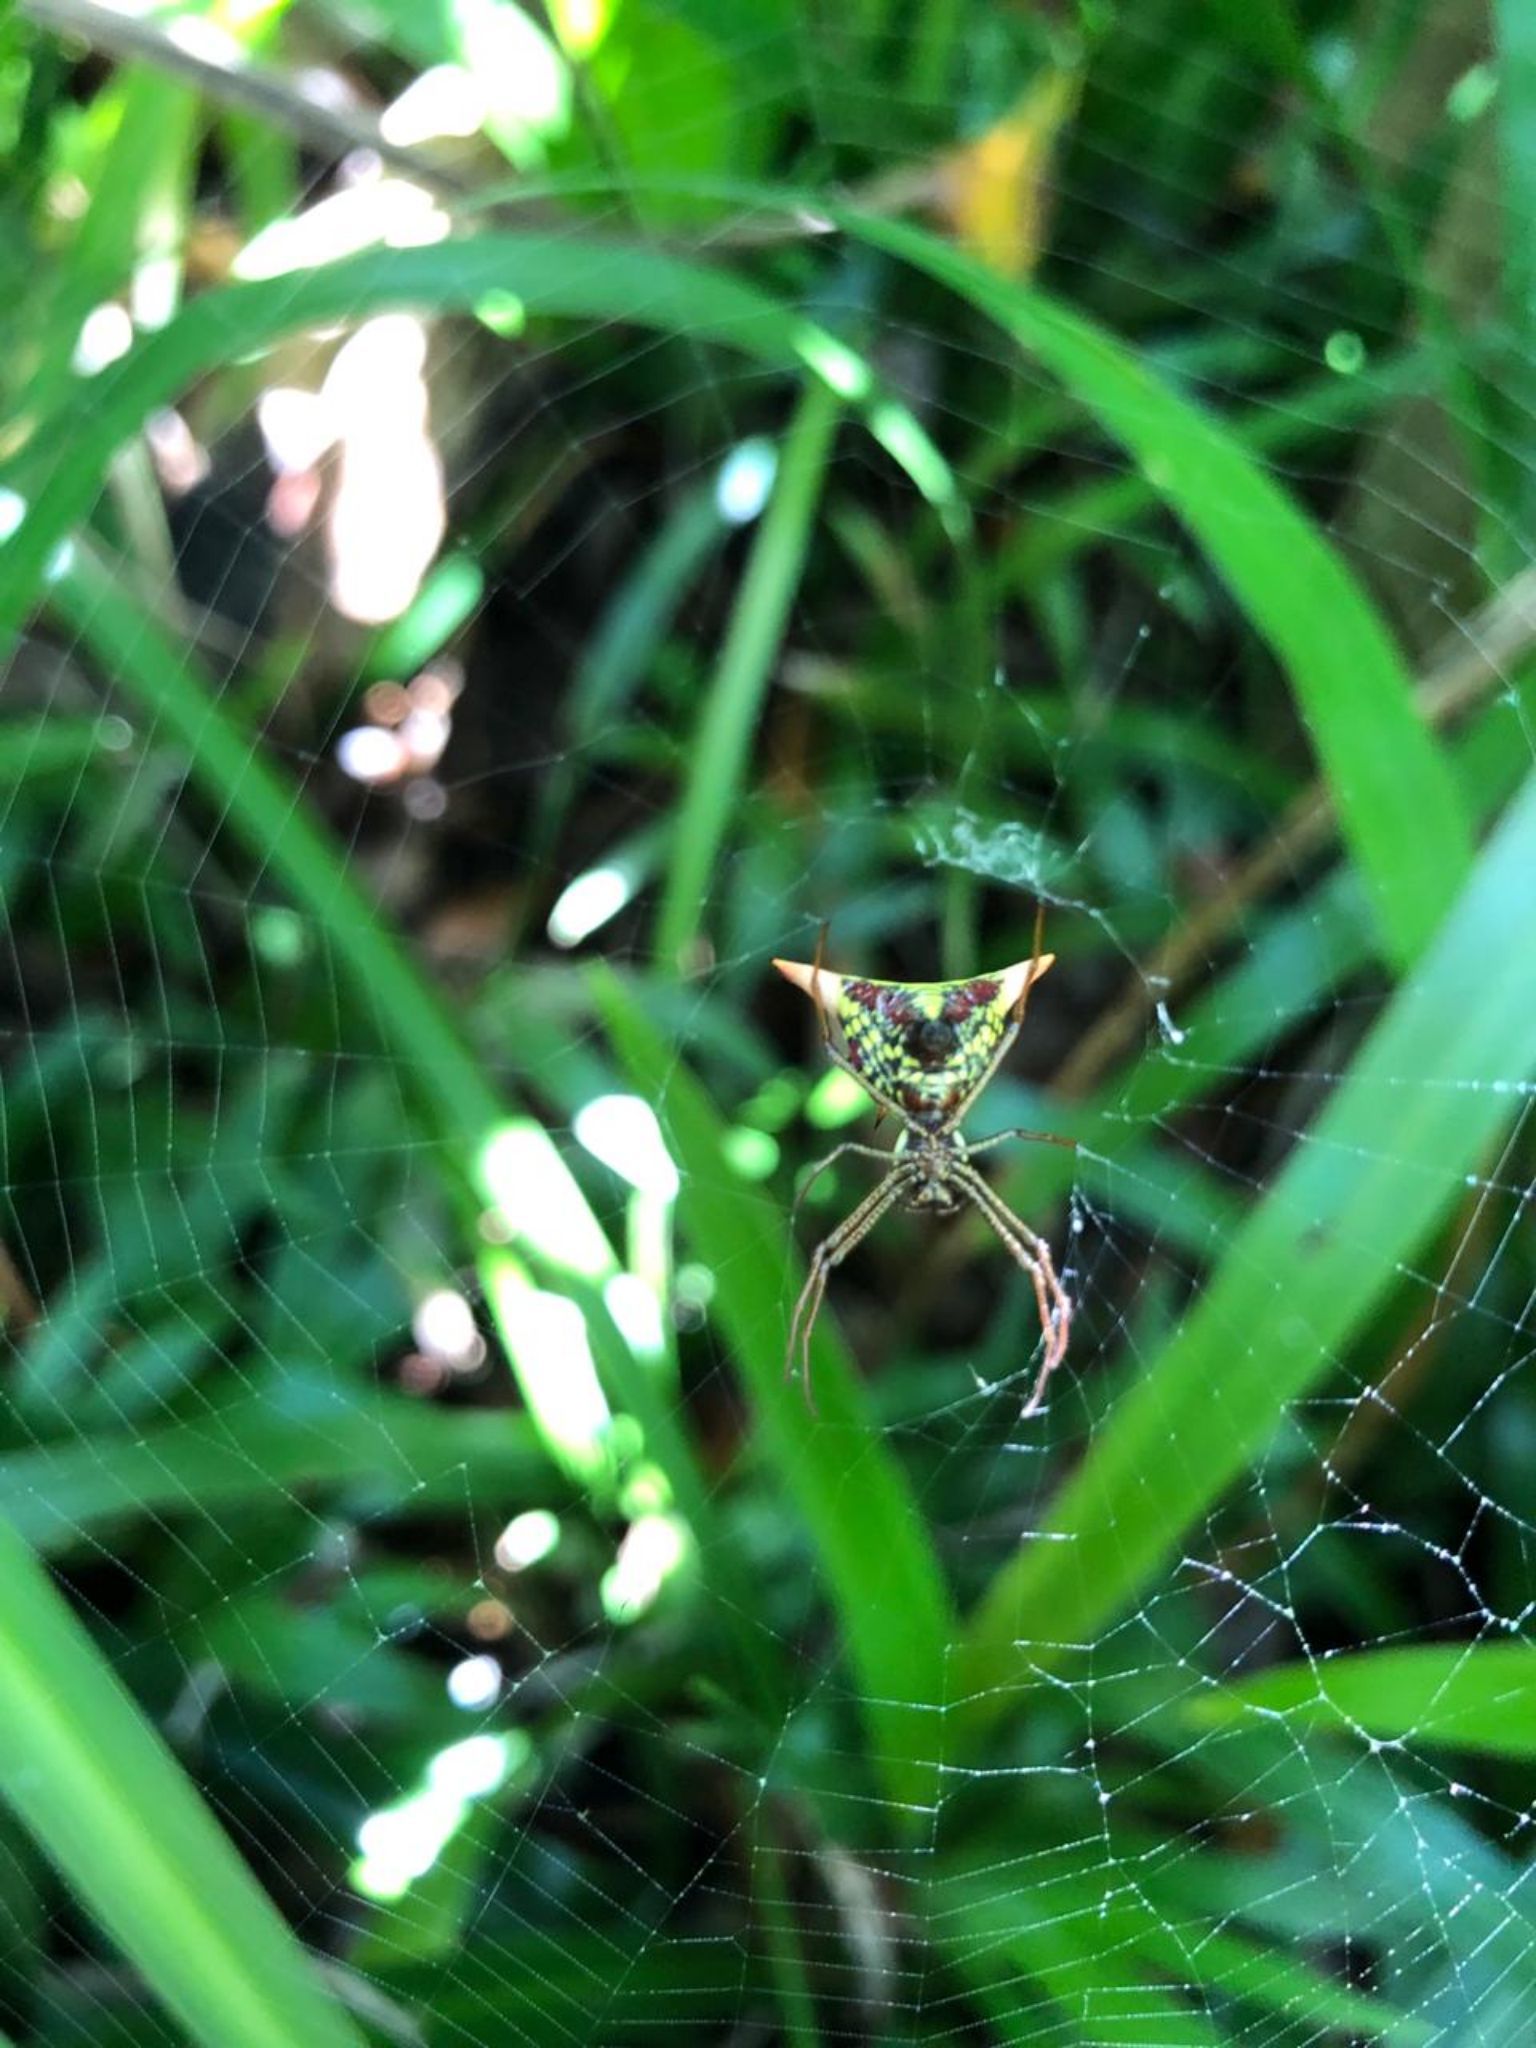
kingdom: Animalia
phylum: Arthropoda
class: Arachnida
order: Araneae
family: Araneidae
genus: Micrathena
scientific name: Micrathena sagittata
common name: Orb weavers
